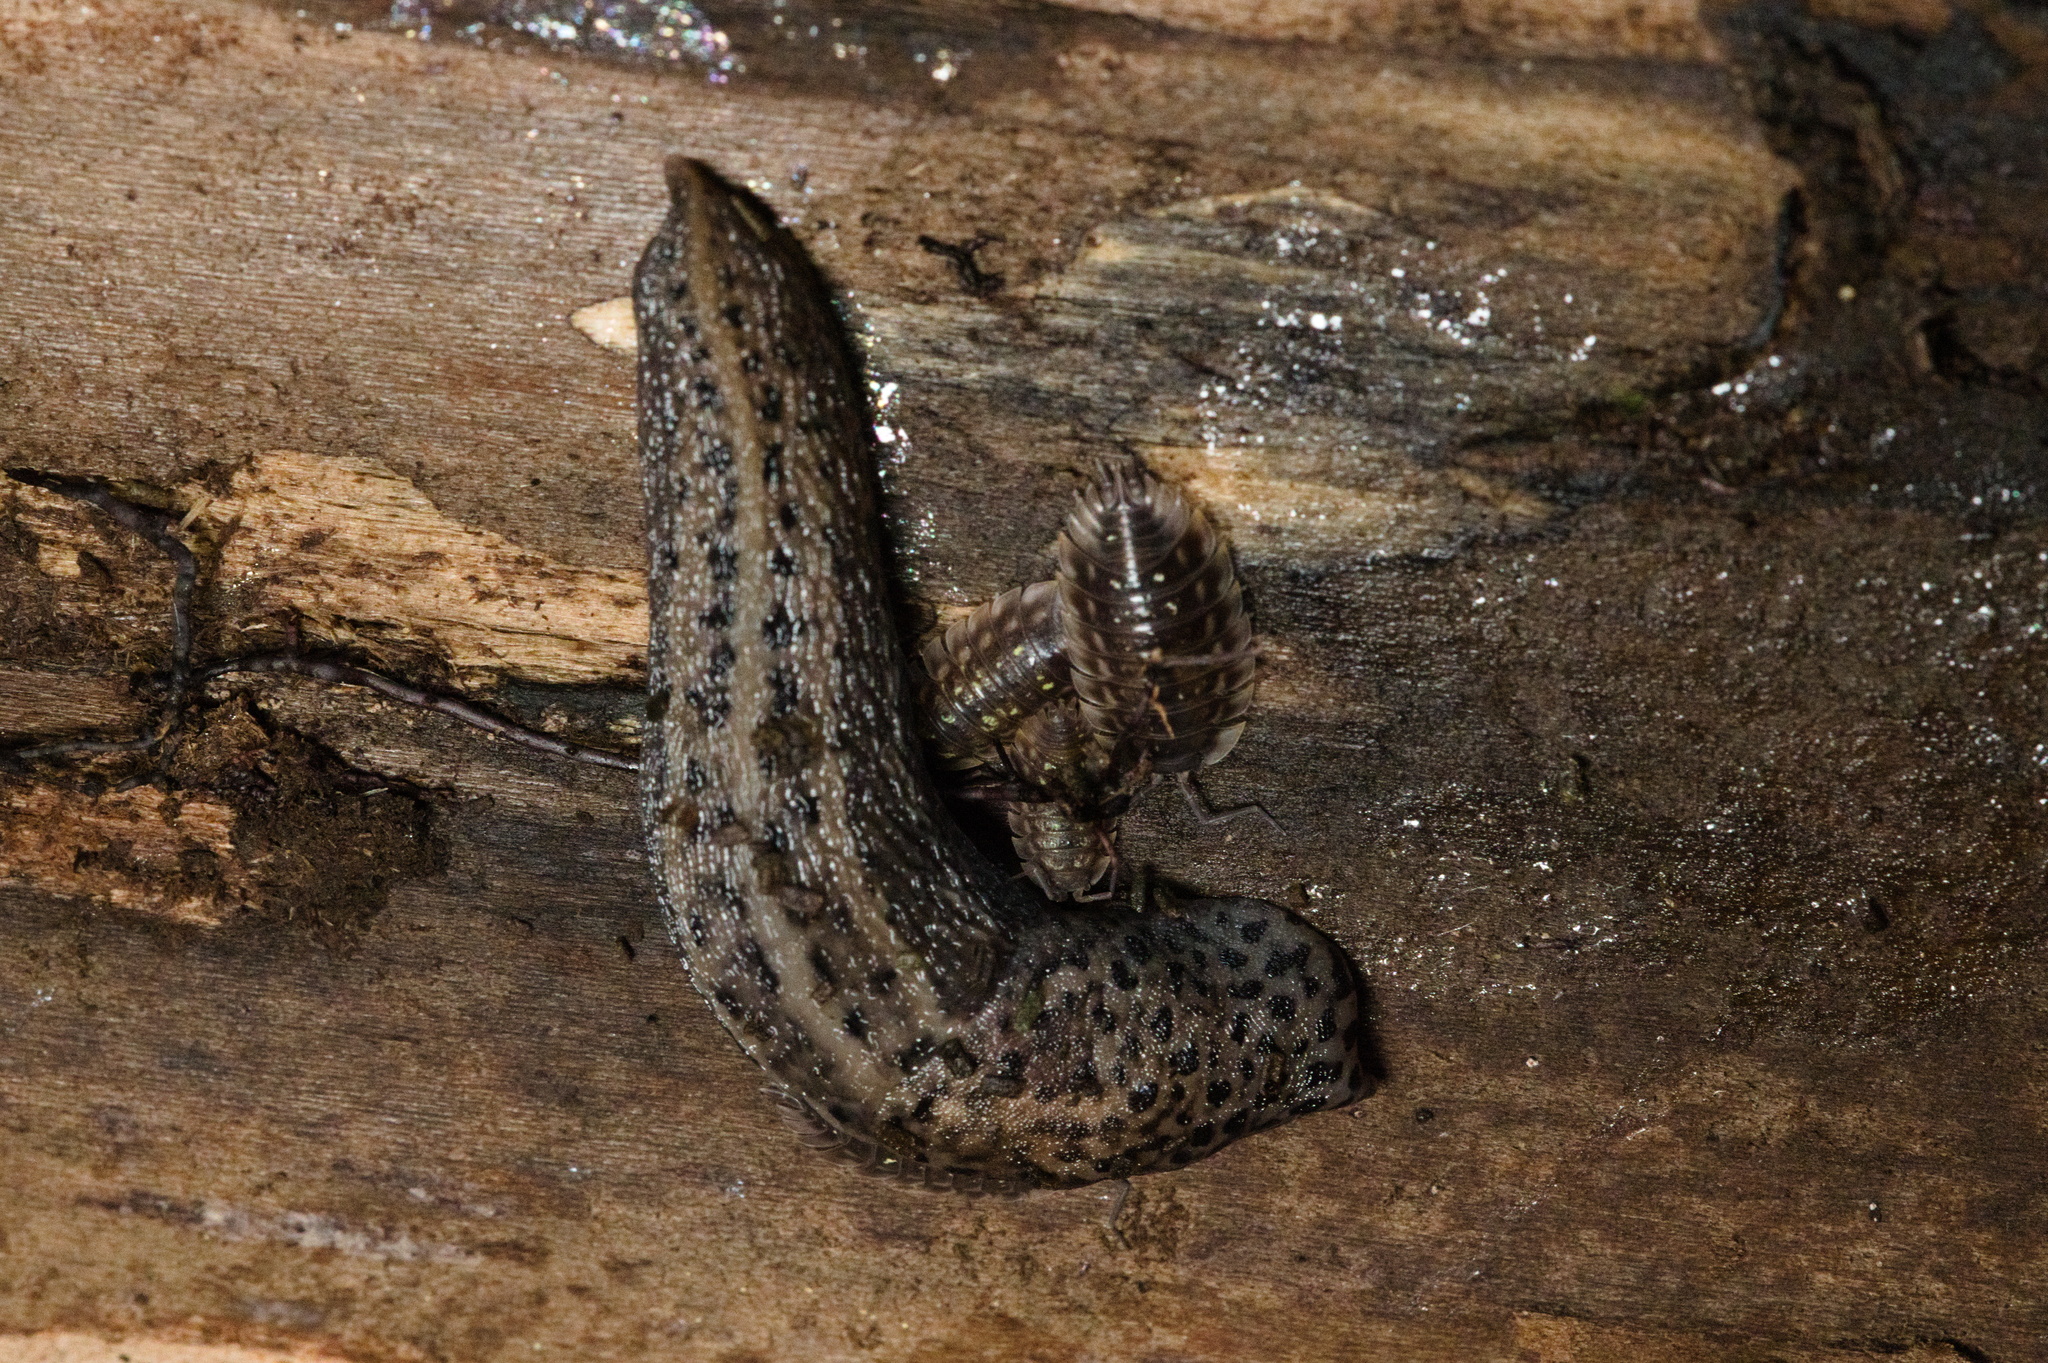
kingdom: Animalia
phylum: Mollusca
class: Gastropoda
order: Stylommatophora
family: Limacidae
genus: Limax
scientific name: Limax maximus
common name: Great grey slug
